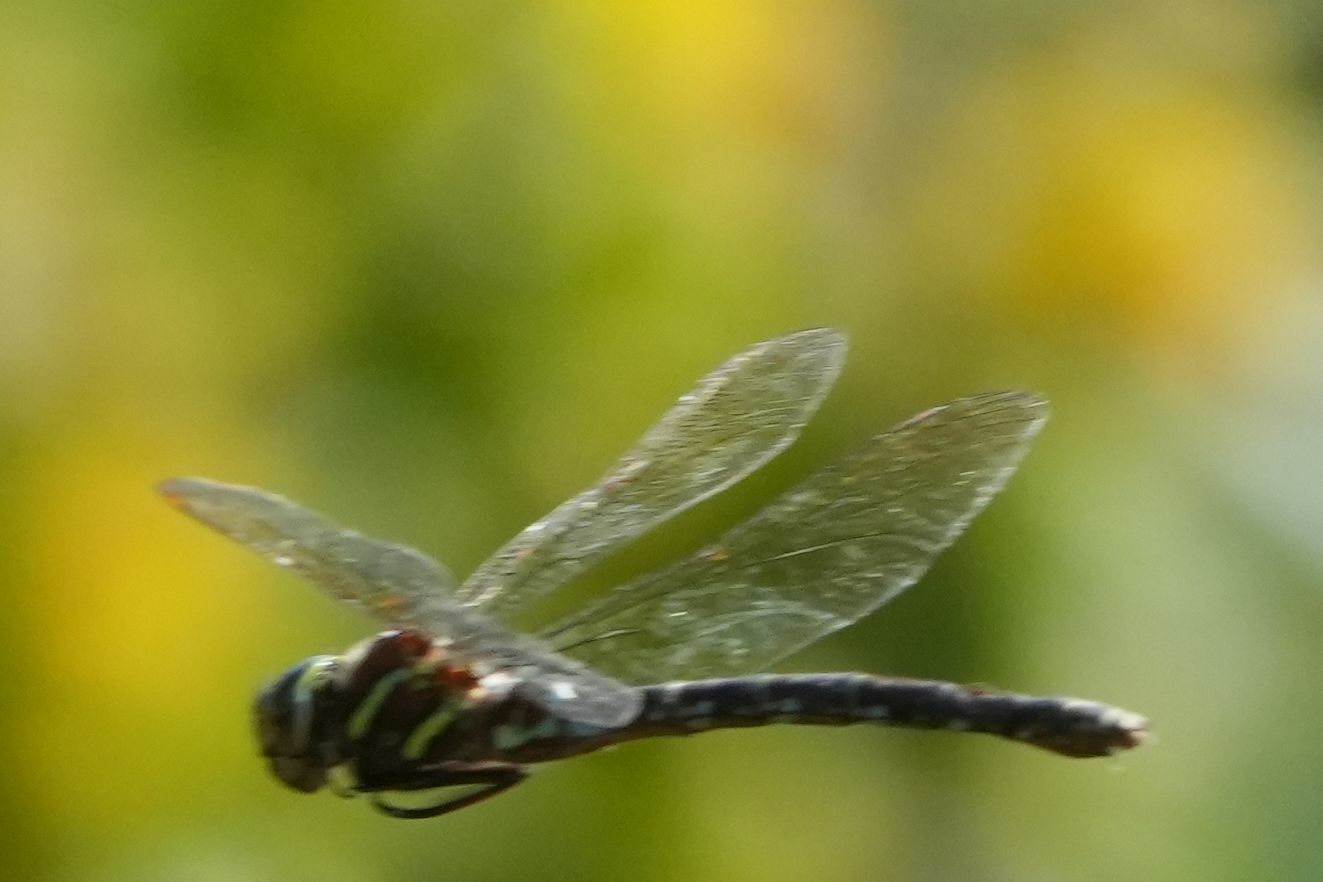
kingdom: Animalia
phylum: Arthropoda
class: Insecta
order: Odonata
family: Aeshnidae
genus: Aeshna
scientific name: Aeshna umbrosa
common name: Shadow darner
